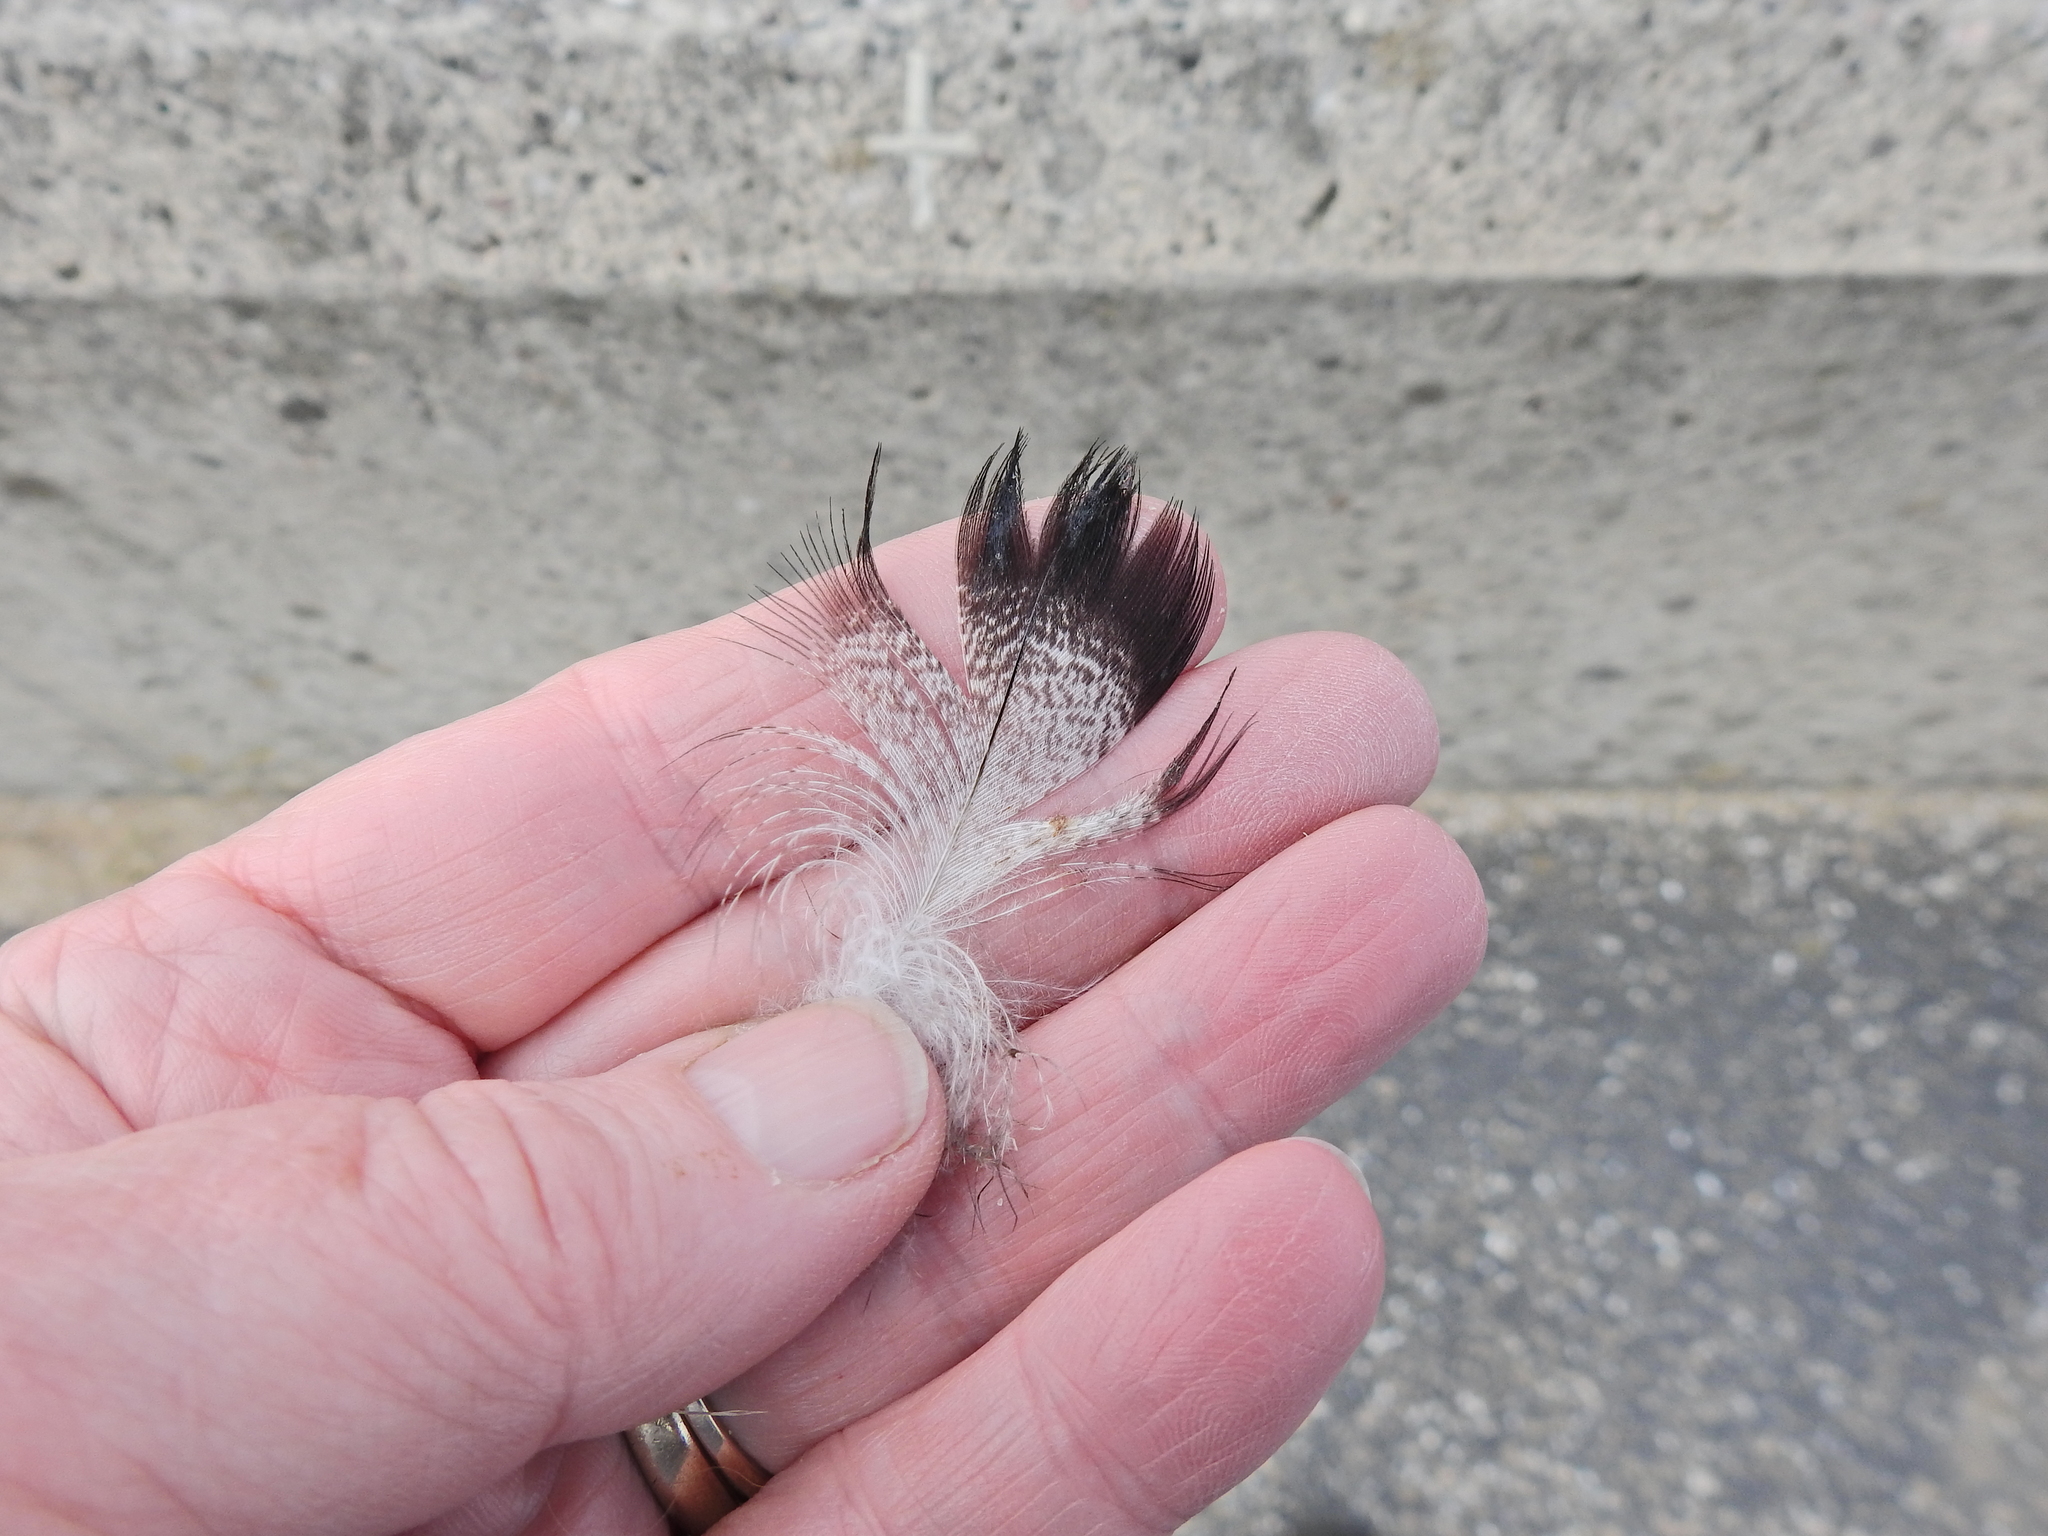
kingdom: Animalia
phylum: Chordata
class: Aves
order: Anseriformes
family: Anatidae
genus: Anas
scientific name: Anas platyrhynchos
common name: Mallard
